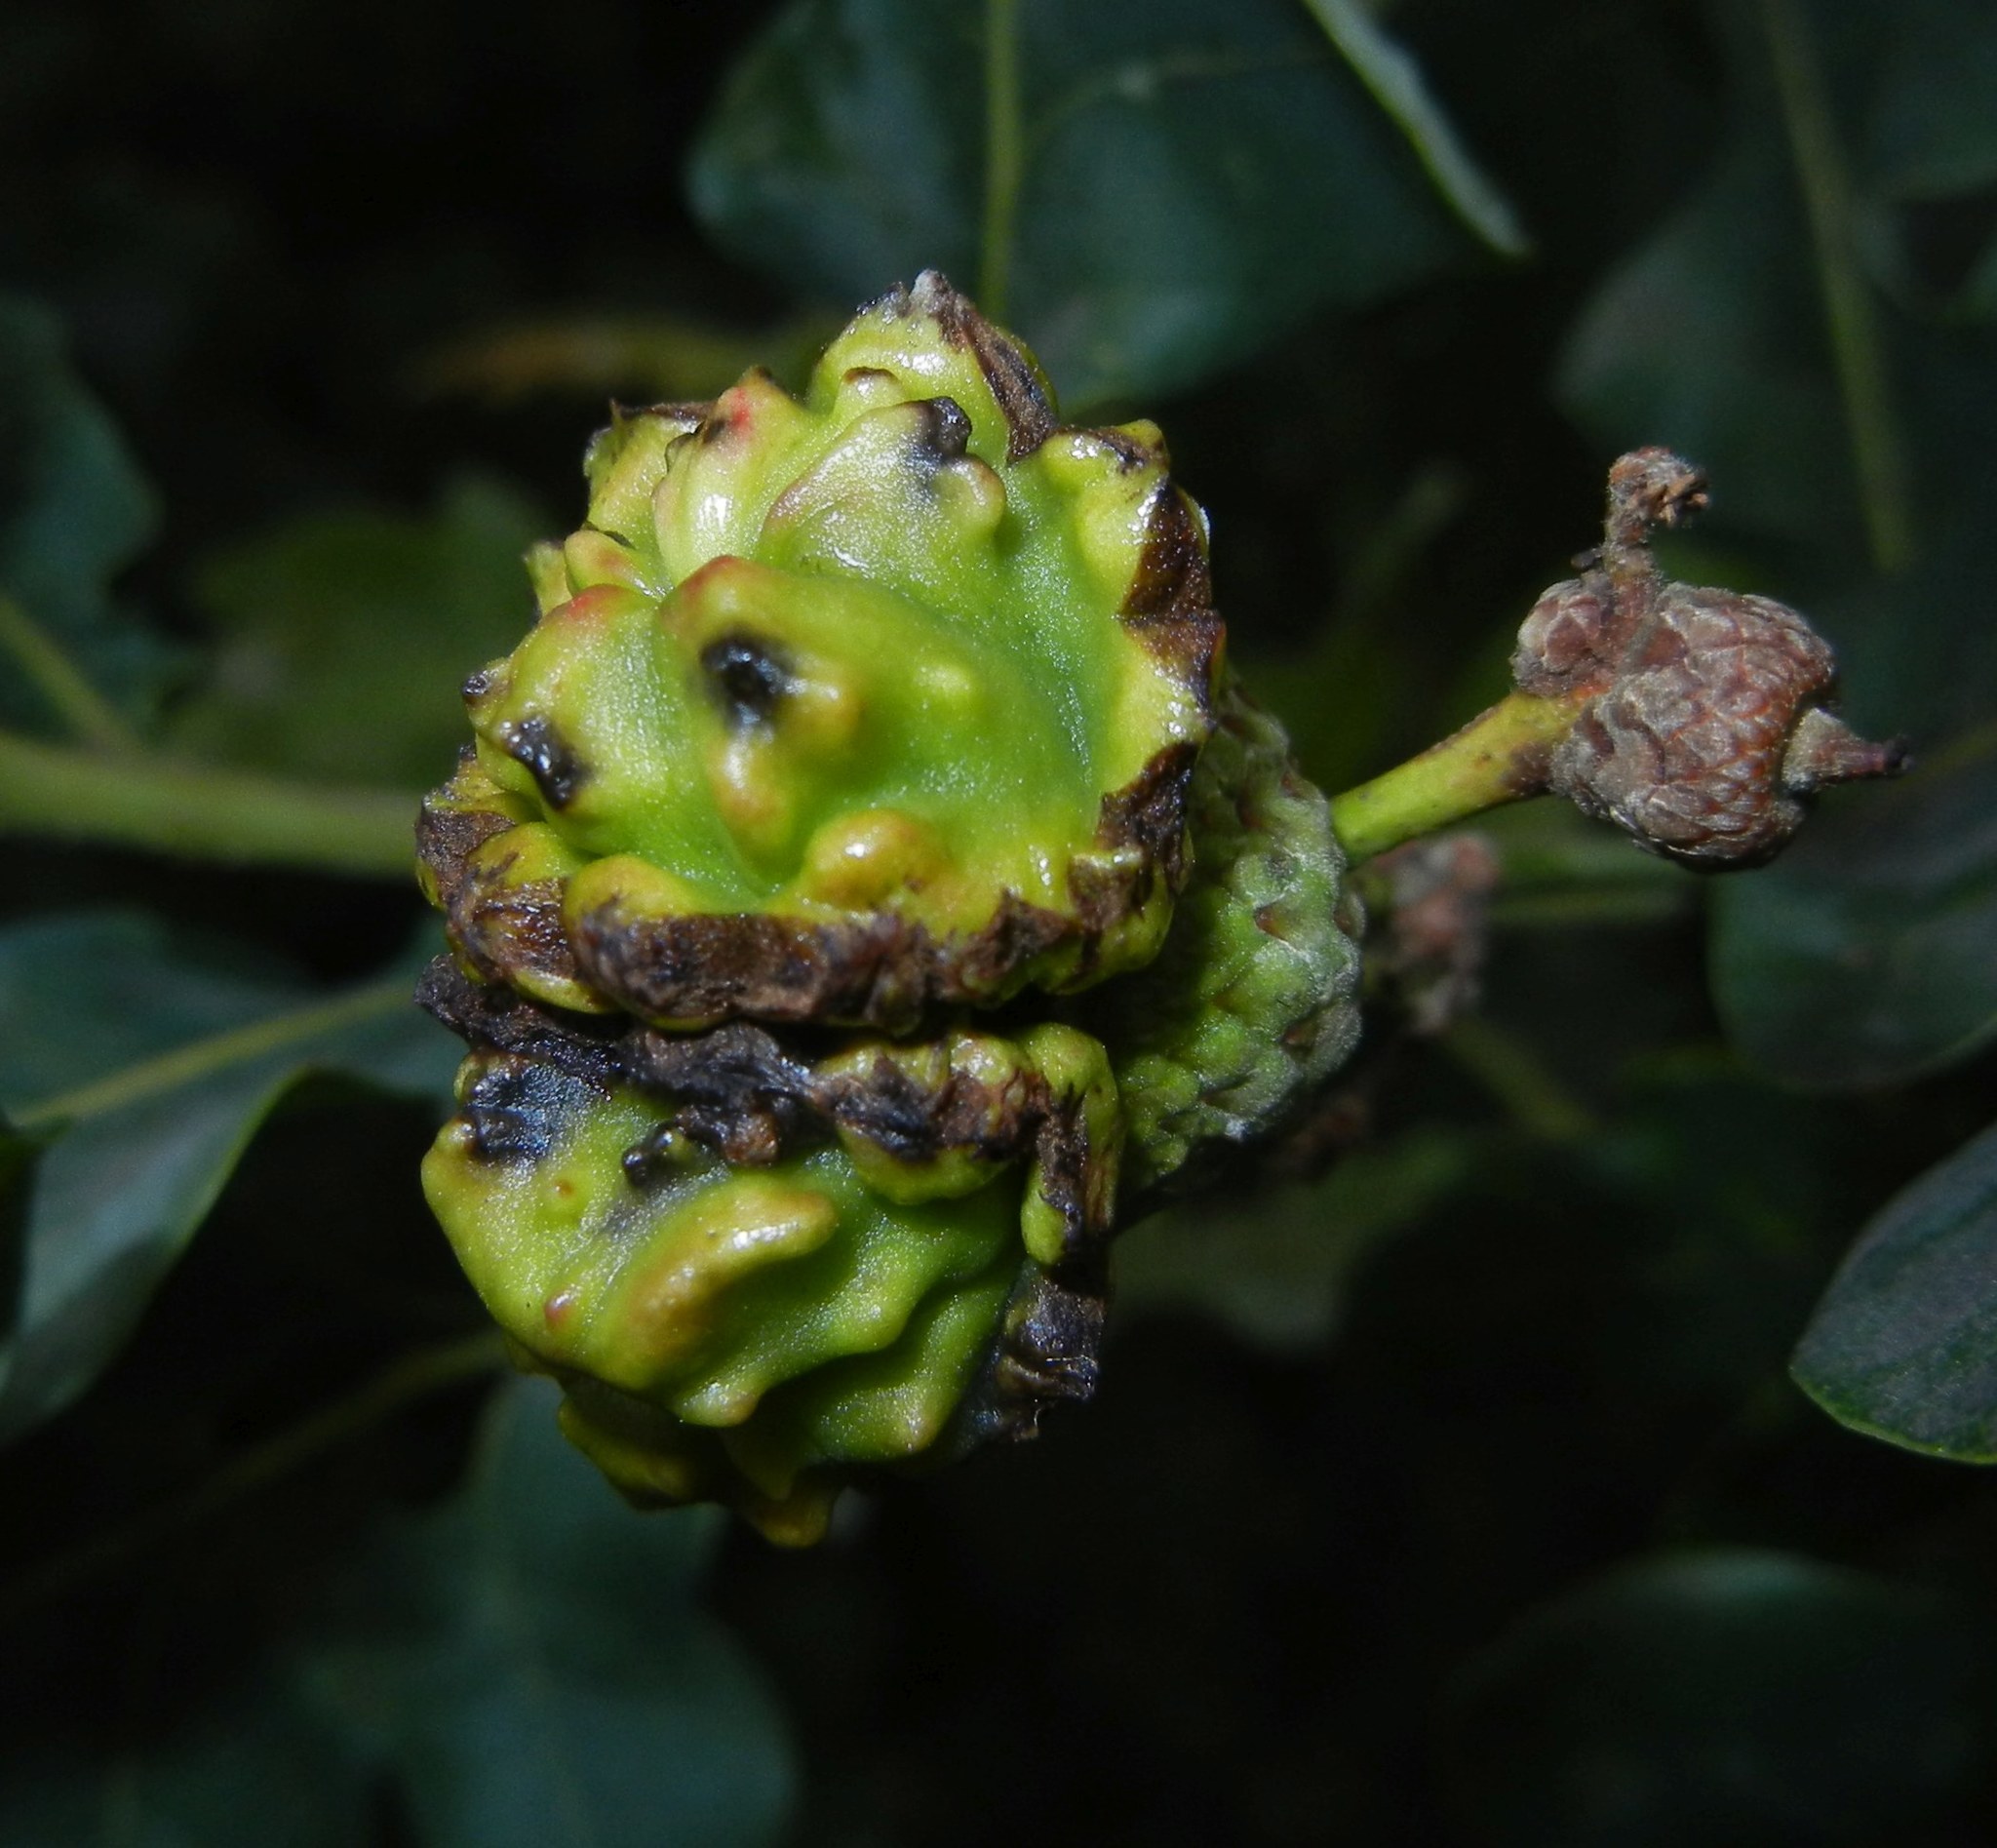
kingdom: Animalia
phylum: Arthropoda
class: Insecta
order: Hymenoptera
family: Cynipidae
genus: Andricus
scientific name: Andricus quercuscalicis
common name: Knopper gall
